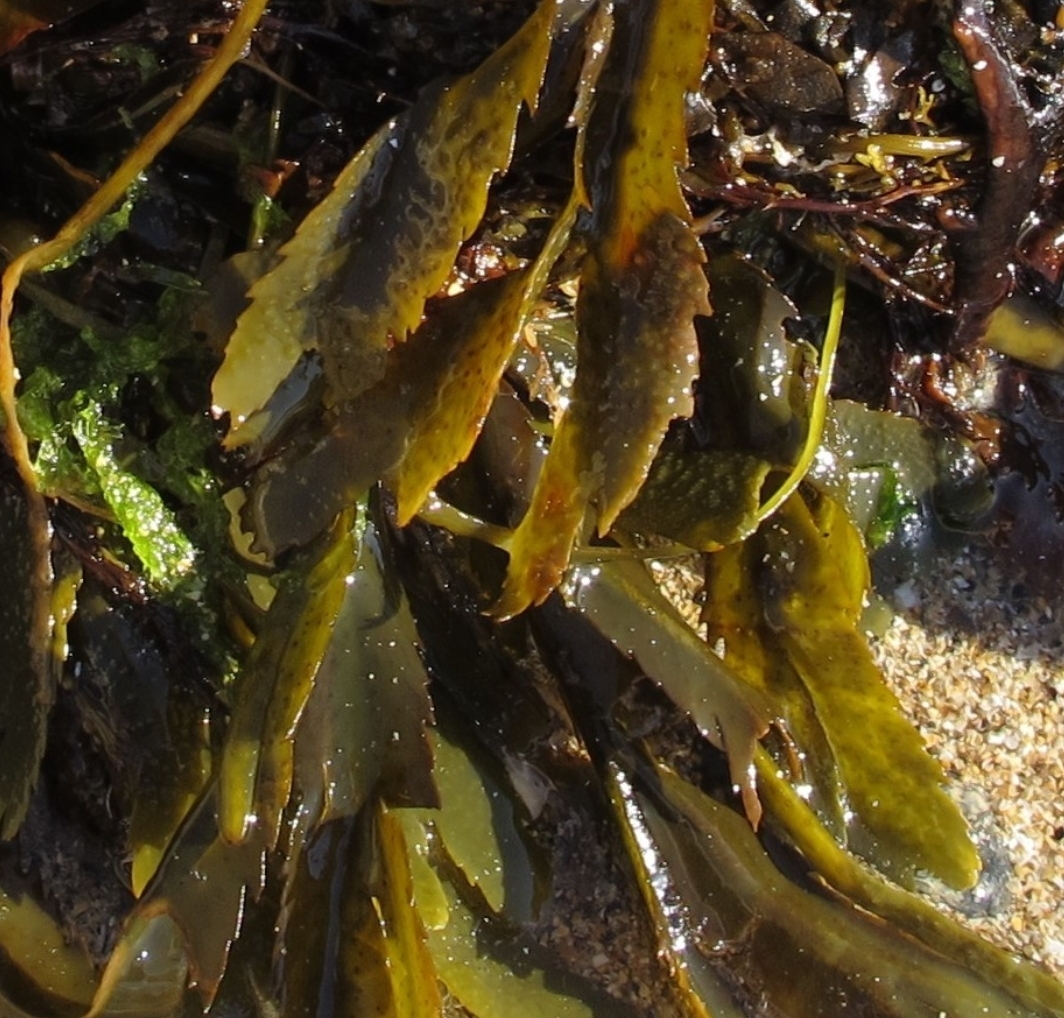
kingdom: Chromista
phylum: Ochrophyta
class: Phaeophyceae
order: Fucales
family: Fucaceae
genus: Fucus
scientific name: Fucus serratus
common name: Toothed wrack
